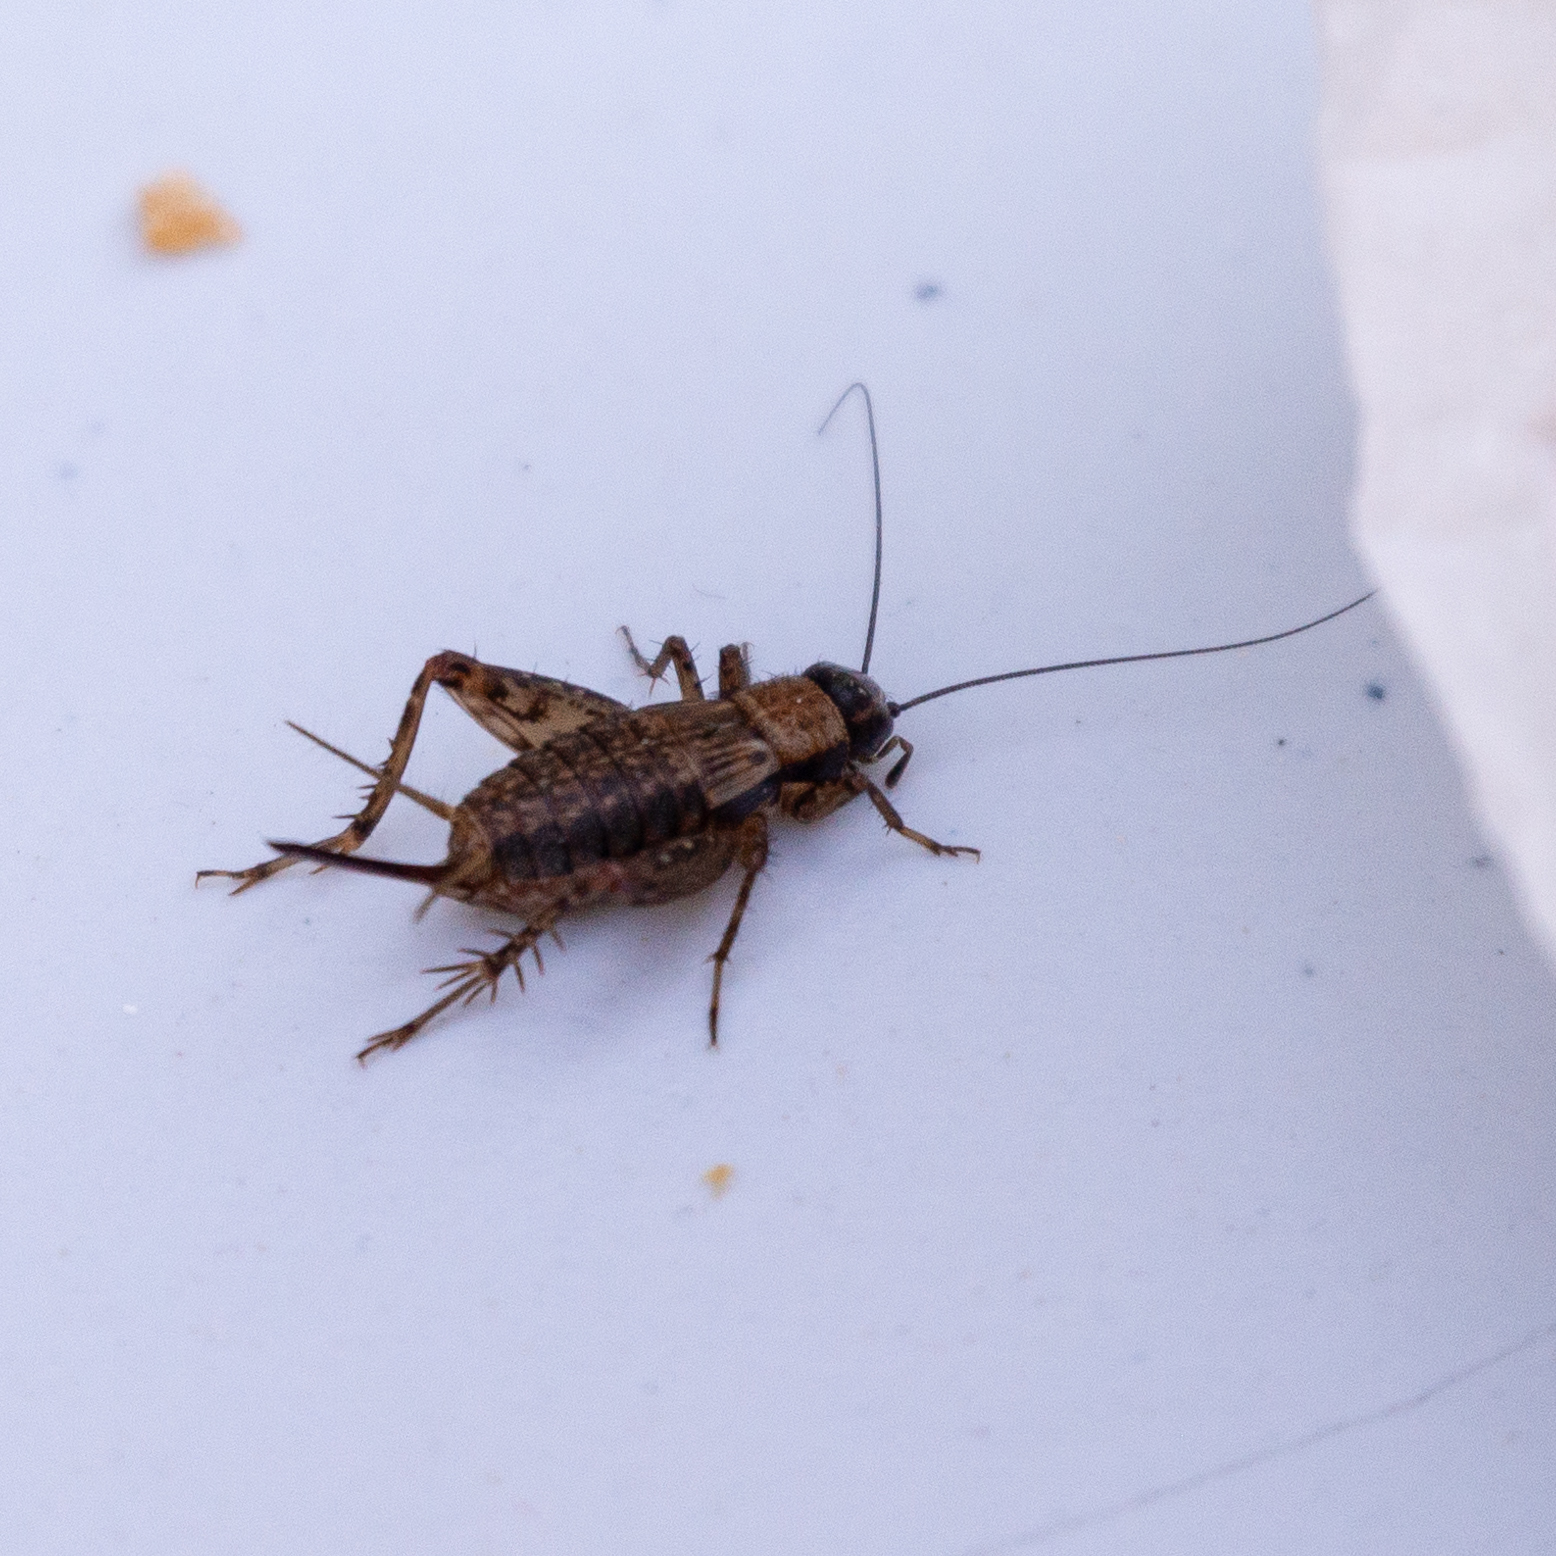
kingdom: Animalia
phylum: Arthropoda
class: Insecta
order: Orthoptera
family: Trigonidiidae
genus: Nemobius
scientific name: Nemobius sylvestris
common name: Wood-cricket
